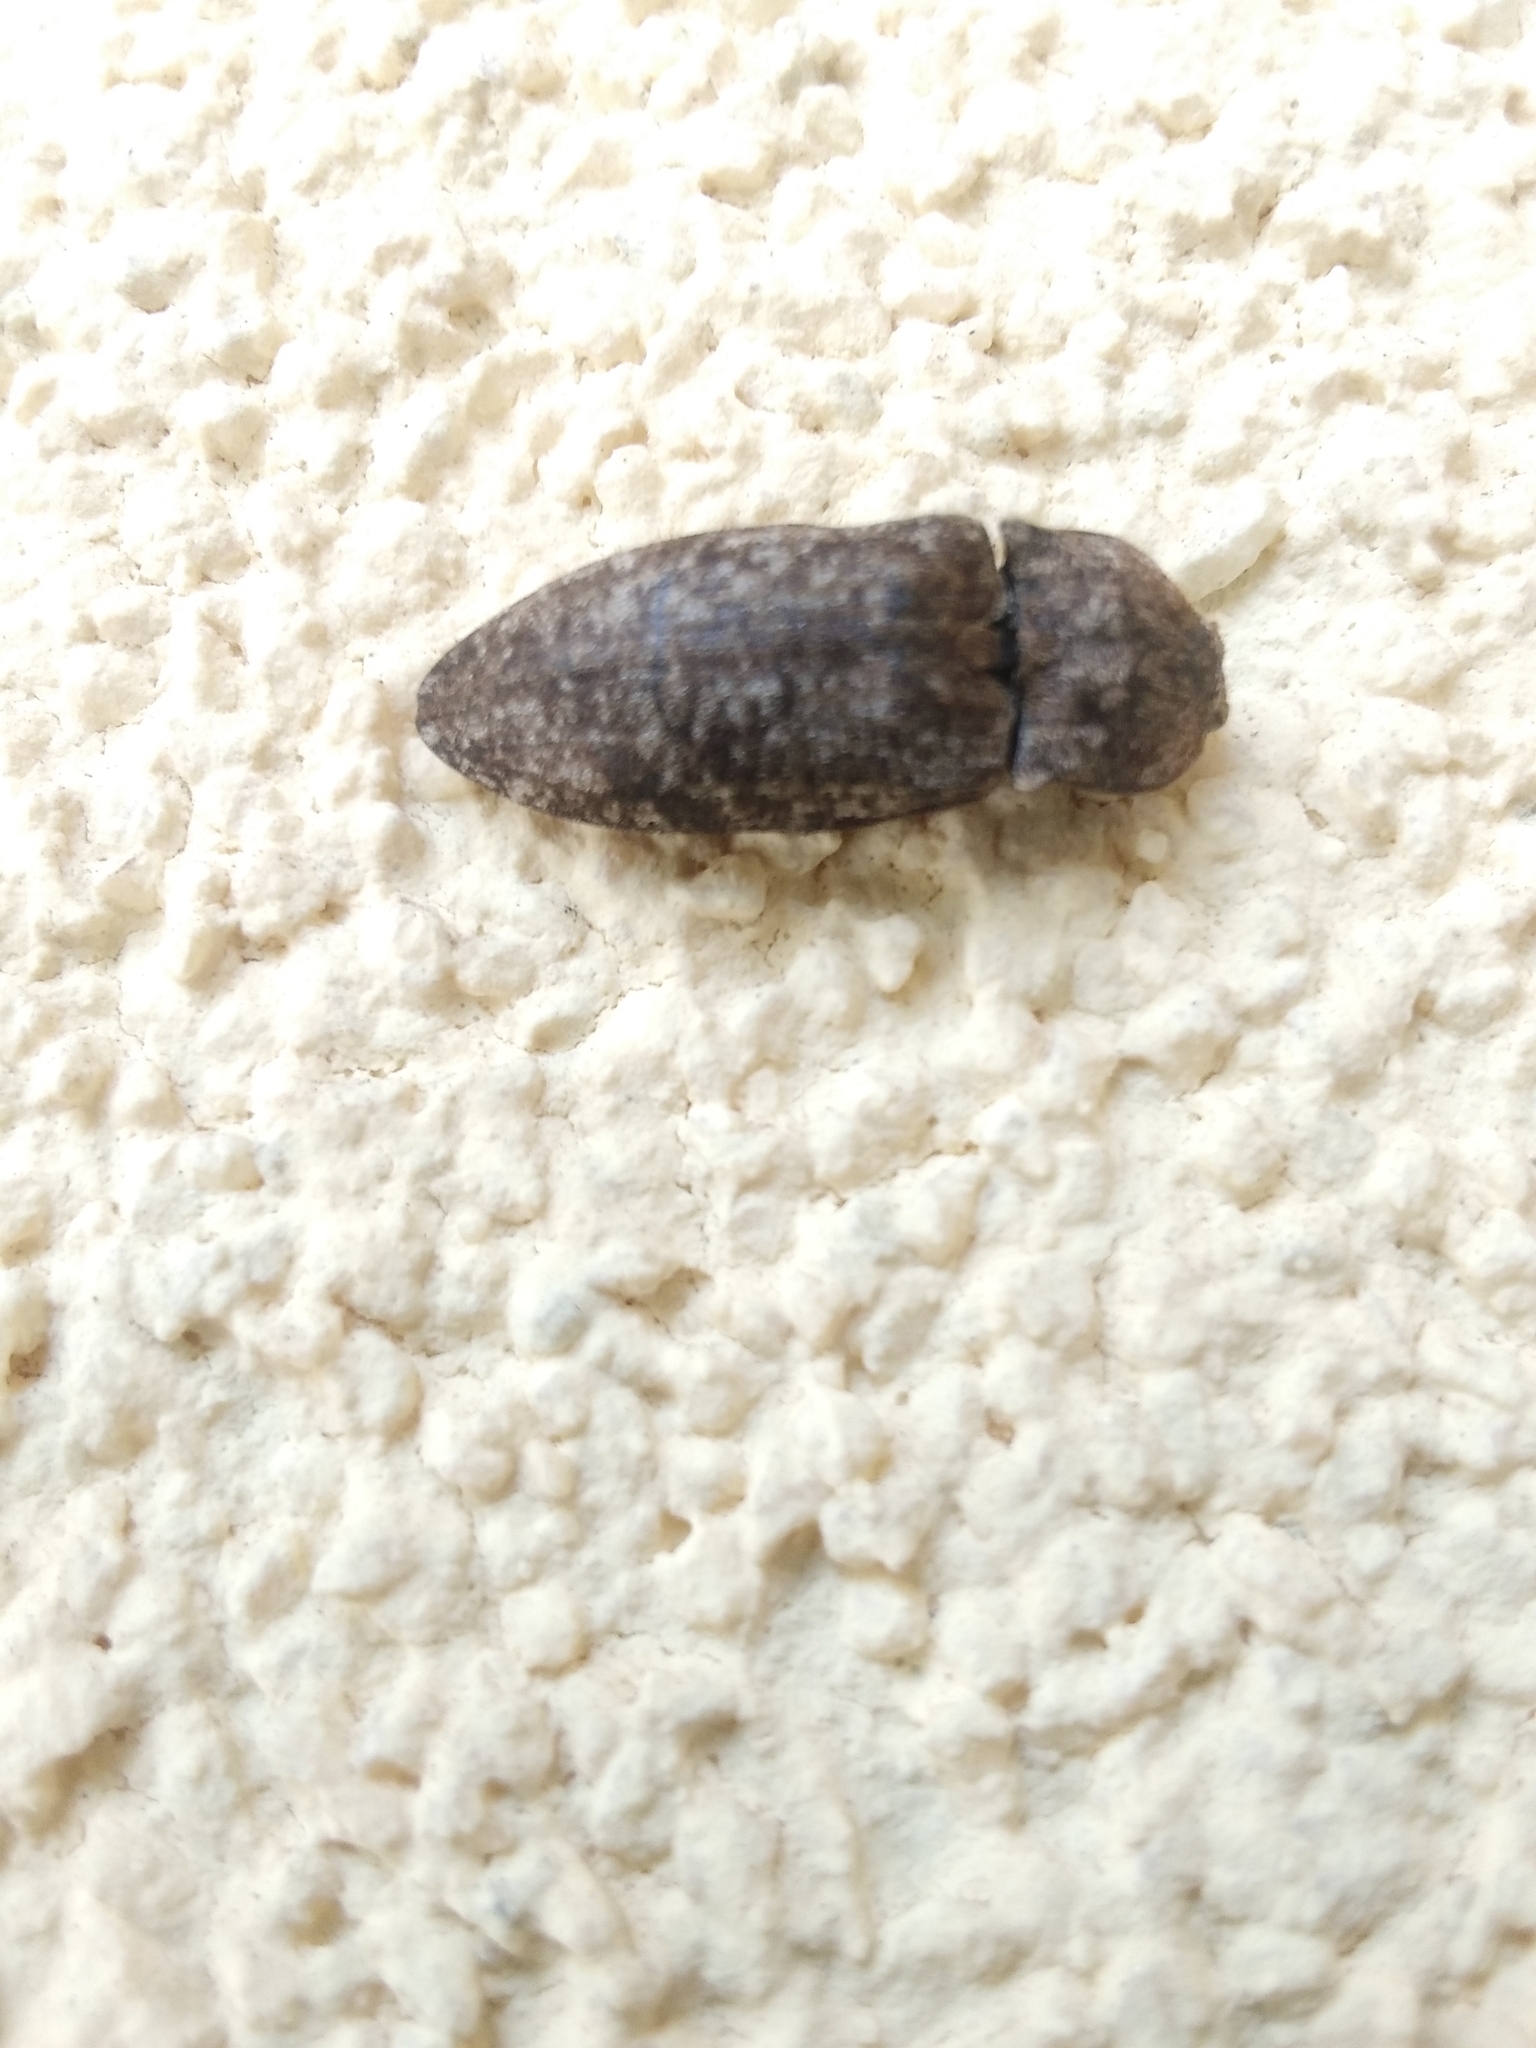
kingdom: Animalia
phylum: Arthropoda
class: Insecta
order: Coleoptera
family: Elateridae
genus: Agrypnus
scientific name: Agrypnus murinus
